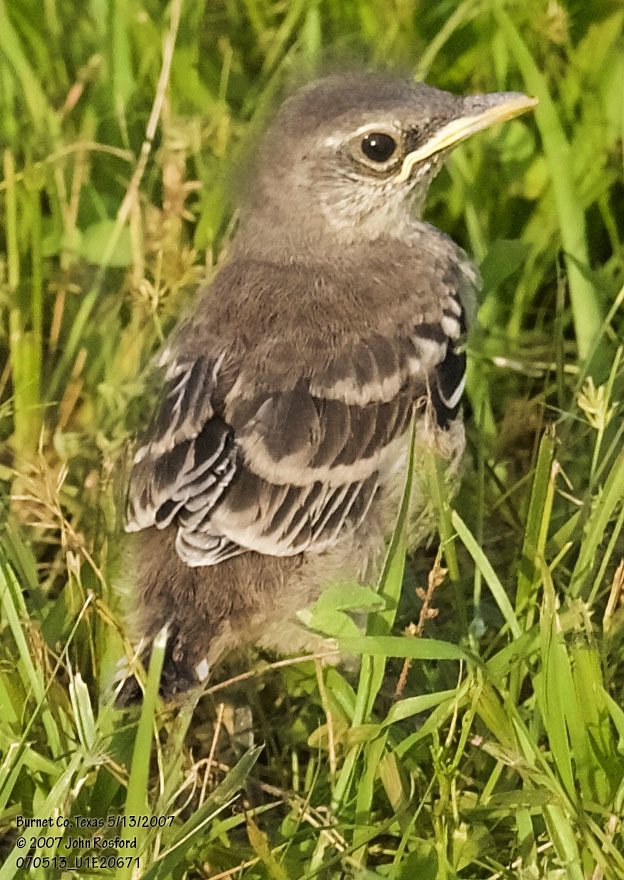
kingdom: Animalia
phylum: Chordata
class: Aves
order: Passeriformes
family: Mimidae
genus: Mimus
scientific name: Mimus polyglottos
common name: Northern mockingbird
